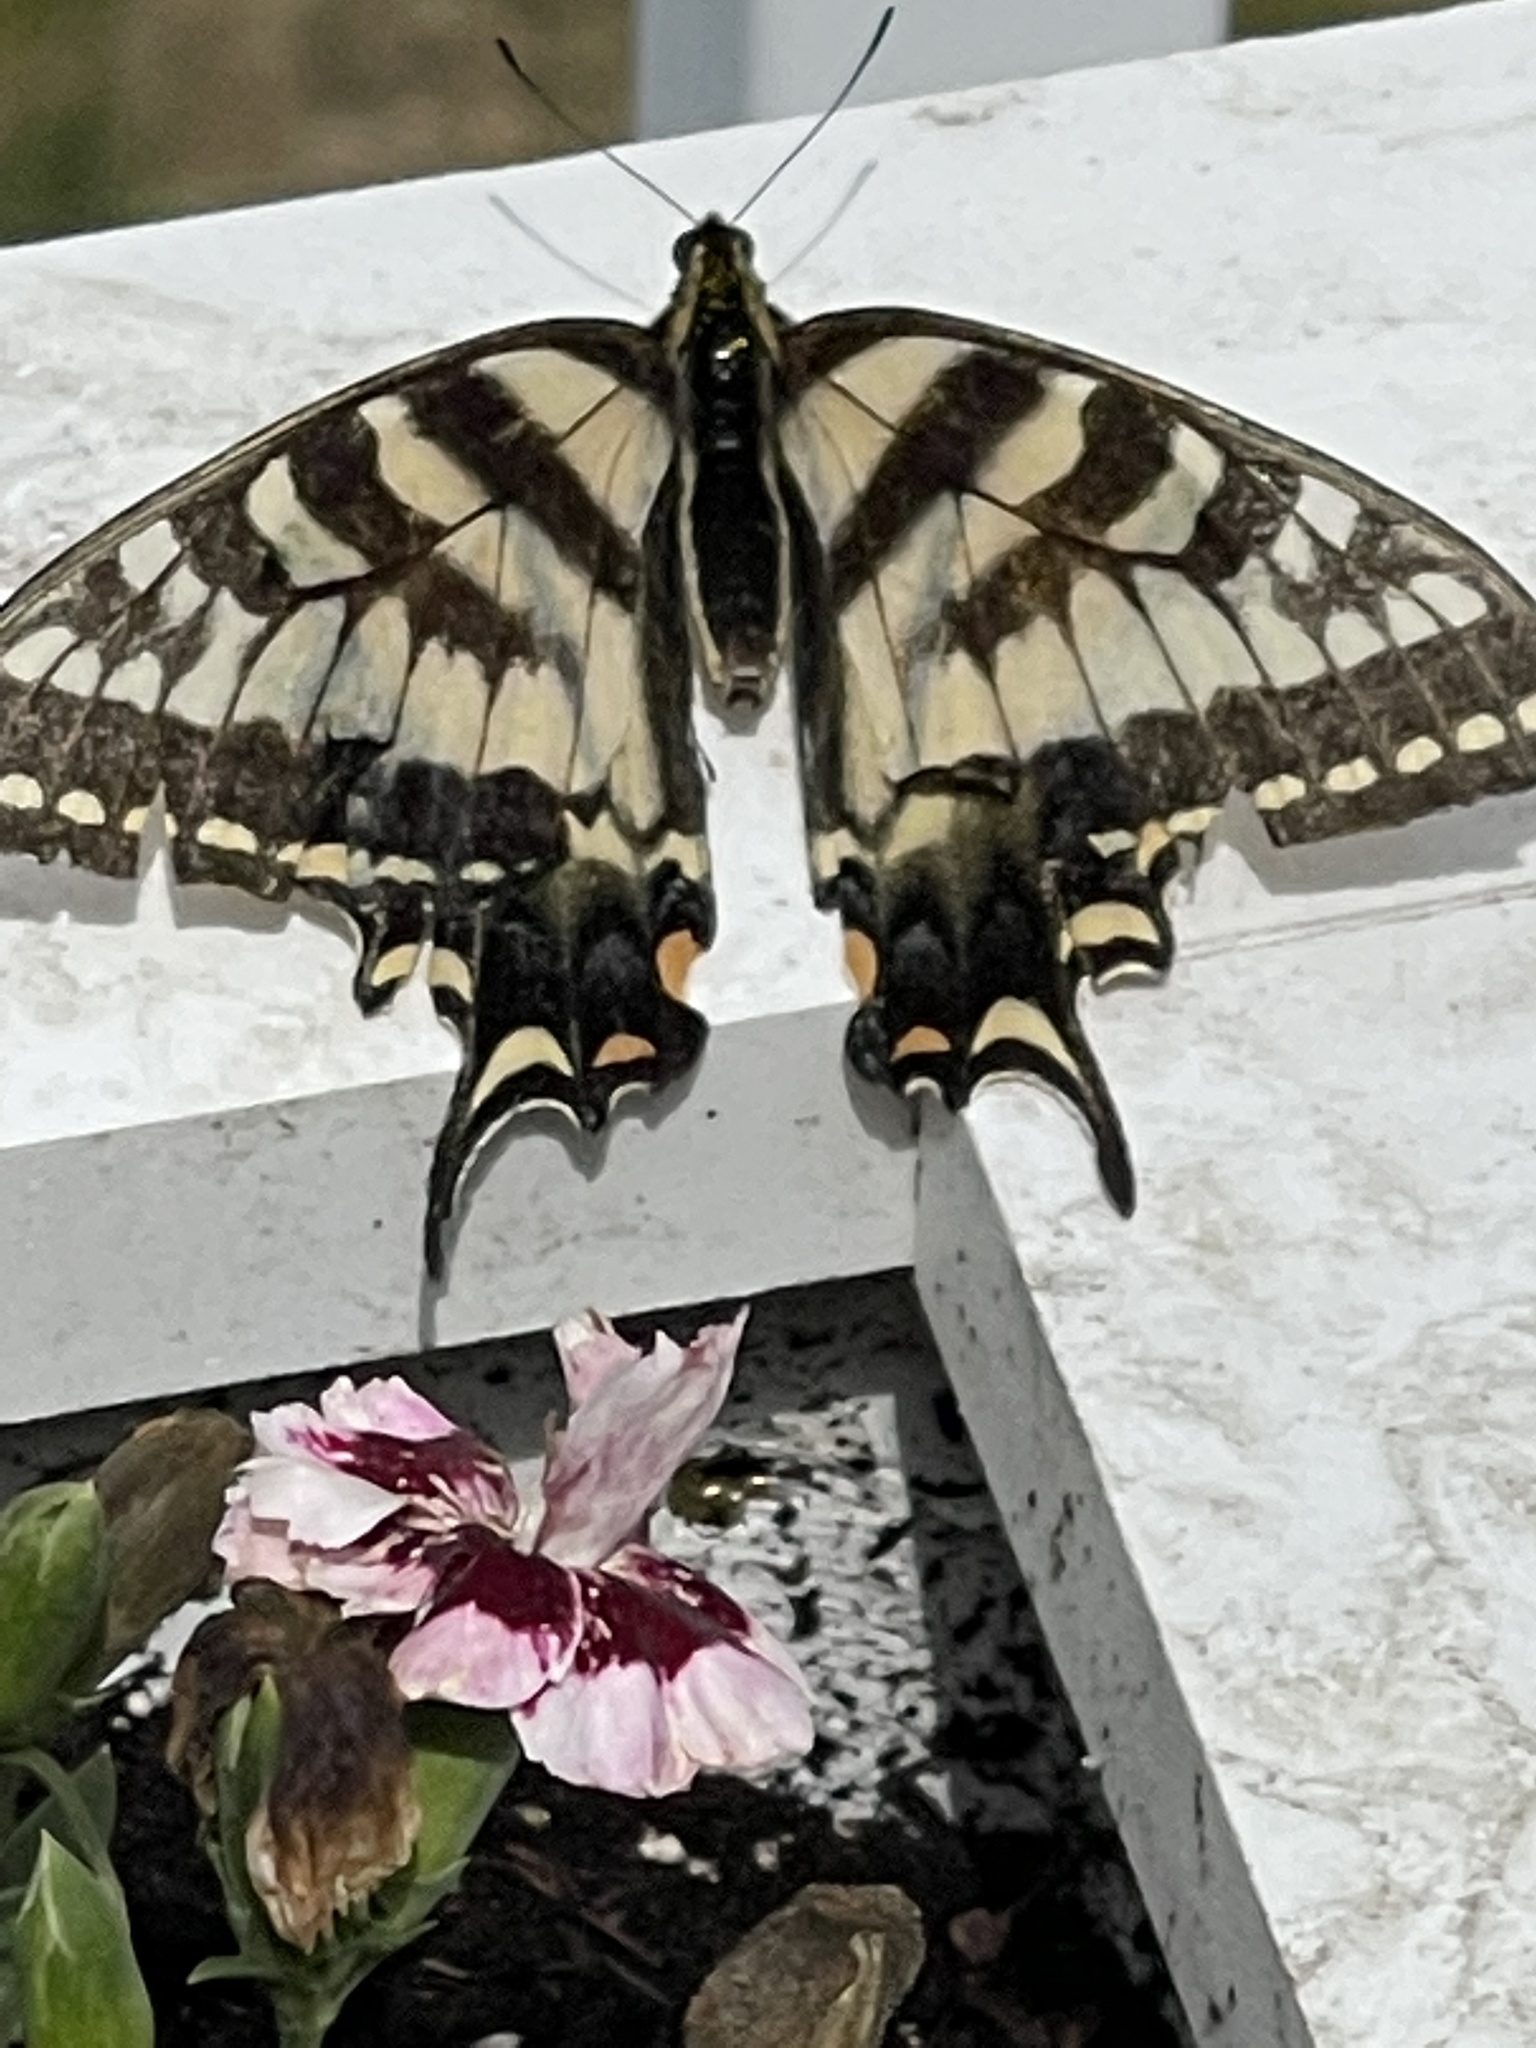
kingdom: Animalia
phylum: Arthropoda
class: Insecta
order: Lepidoptera
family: Papilionidae
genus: Papilio
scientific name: Papilio canadensis
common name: Canadian tiger swallowtail
